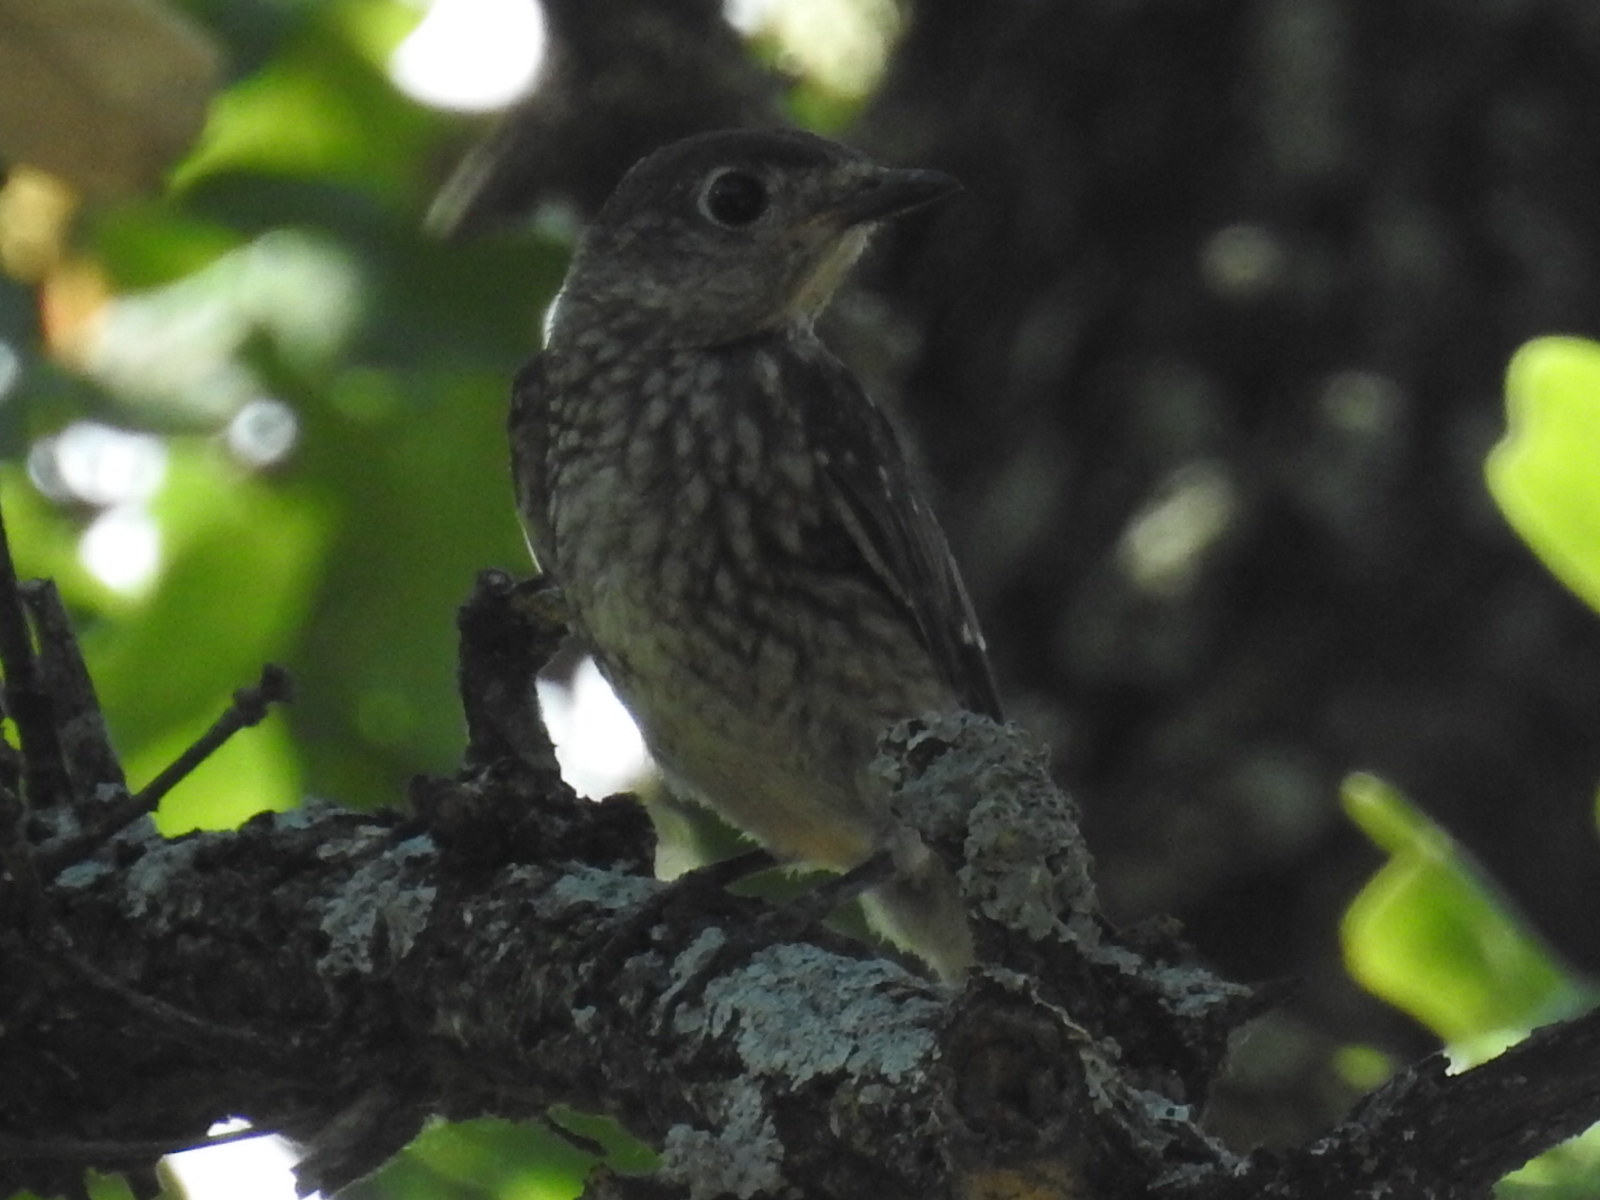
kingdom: Animalia
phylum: Chordata
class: Aves
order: Passeriformes
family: Turdidae
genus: Sialia
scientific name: Sialia sialis
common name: Eastern bluebird
